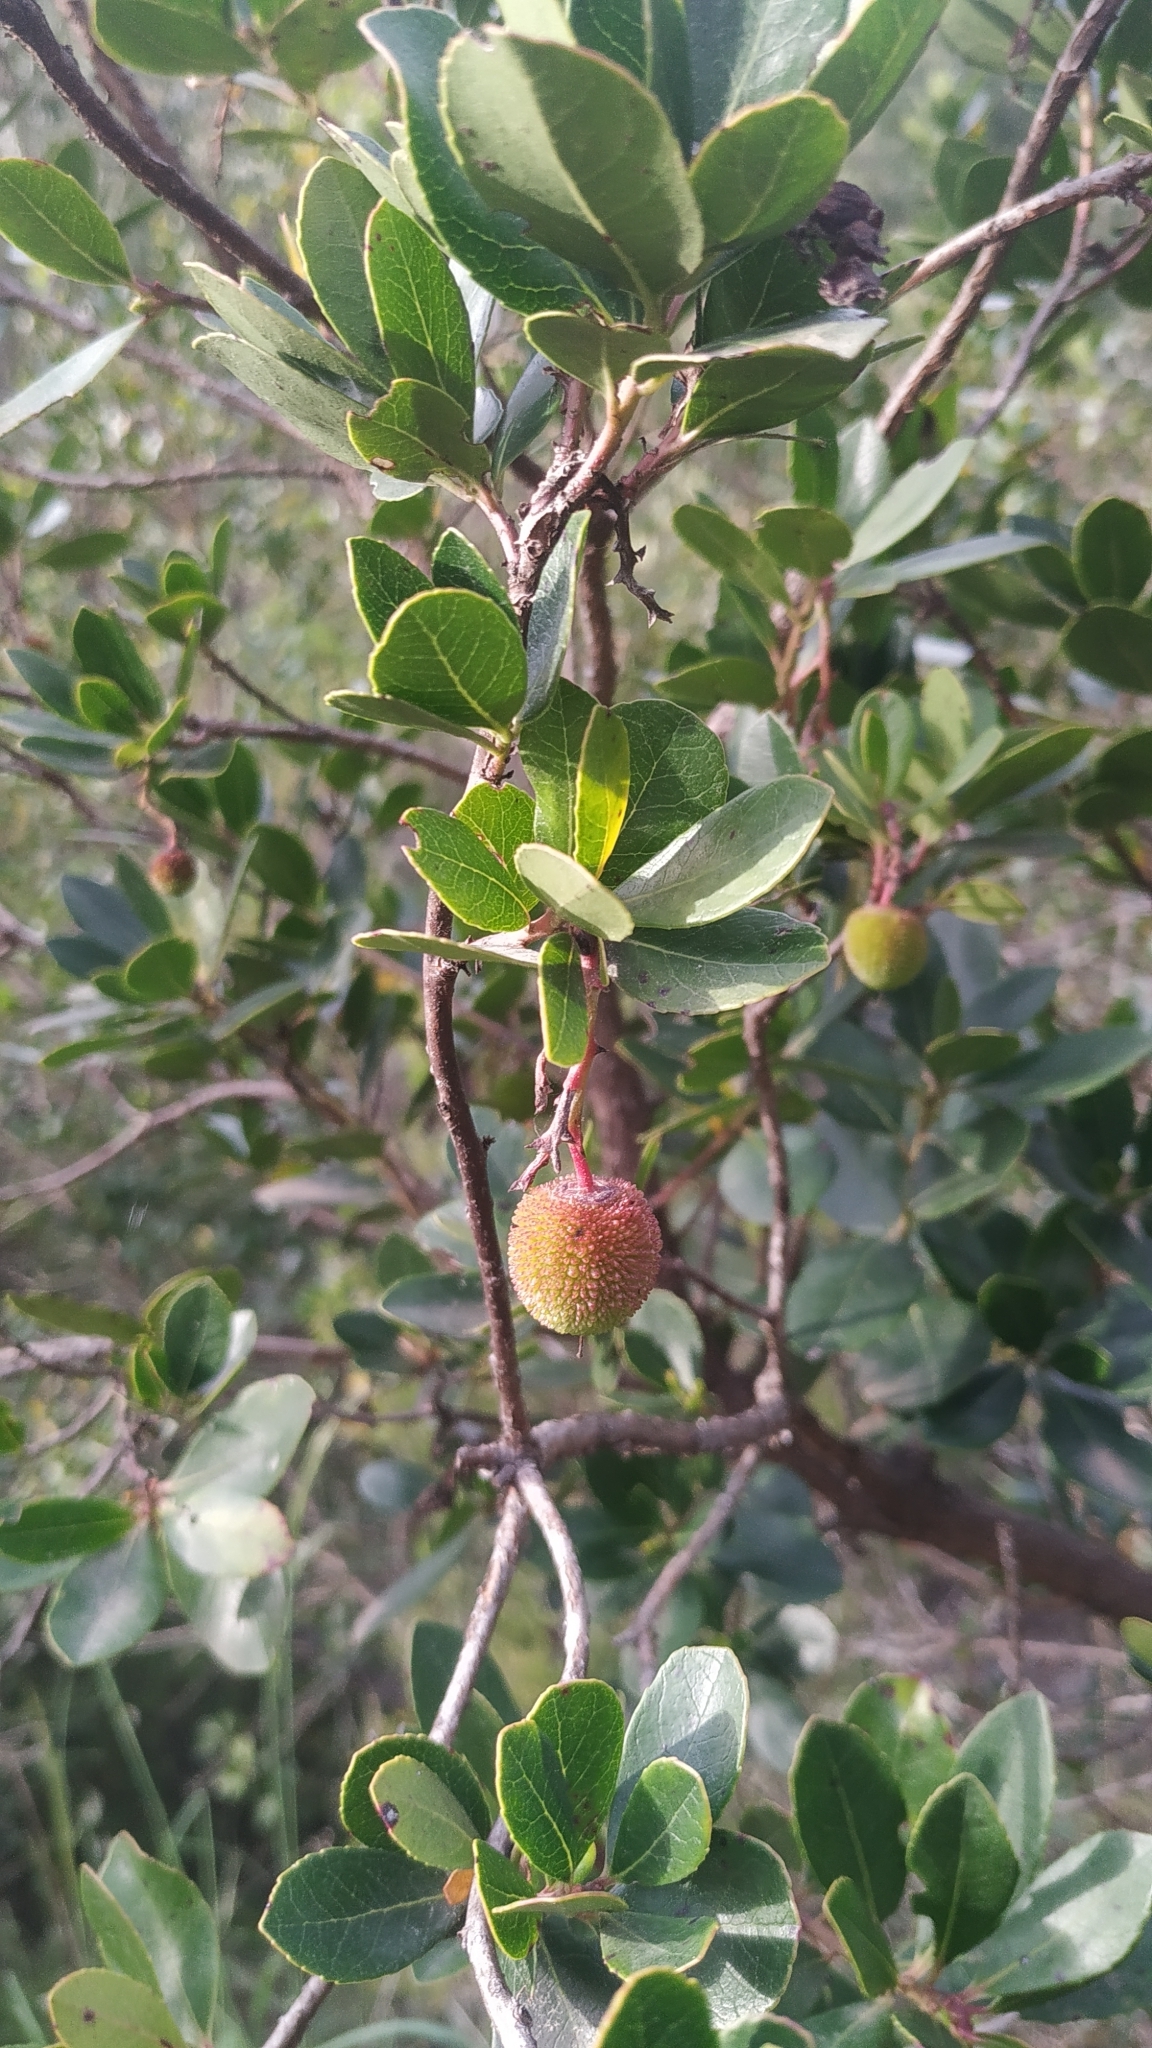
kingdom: Plantae
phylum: Tracheophyta
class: Magnoliopsida
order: Ericales
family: Ericaceae
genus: Arbutus
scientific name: Arbutus unedo
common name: Strawberry-tree
